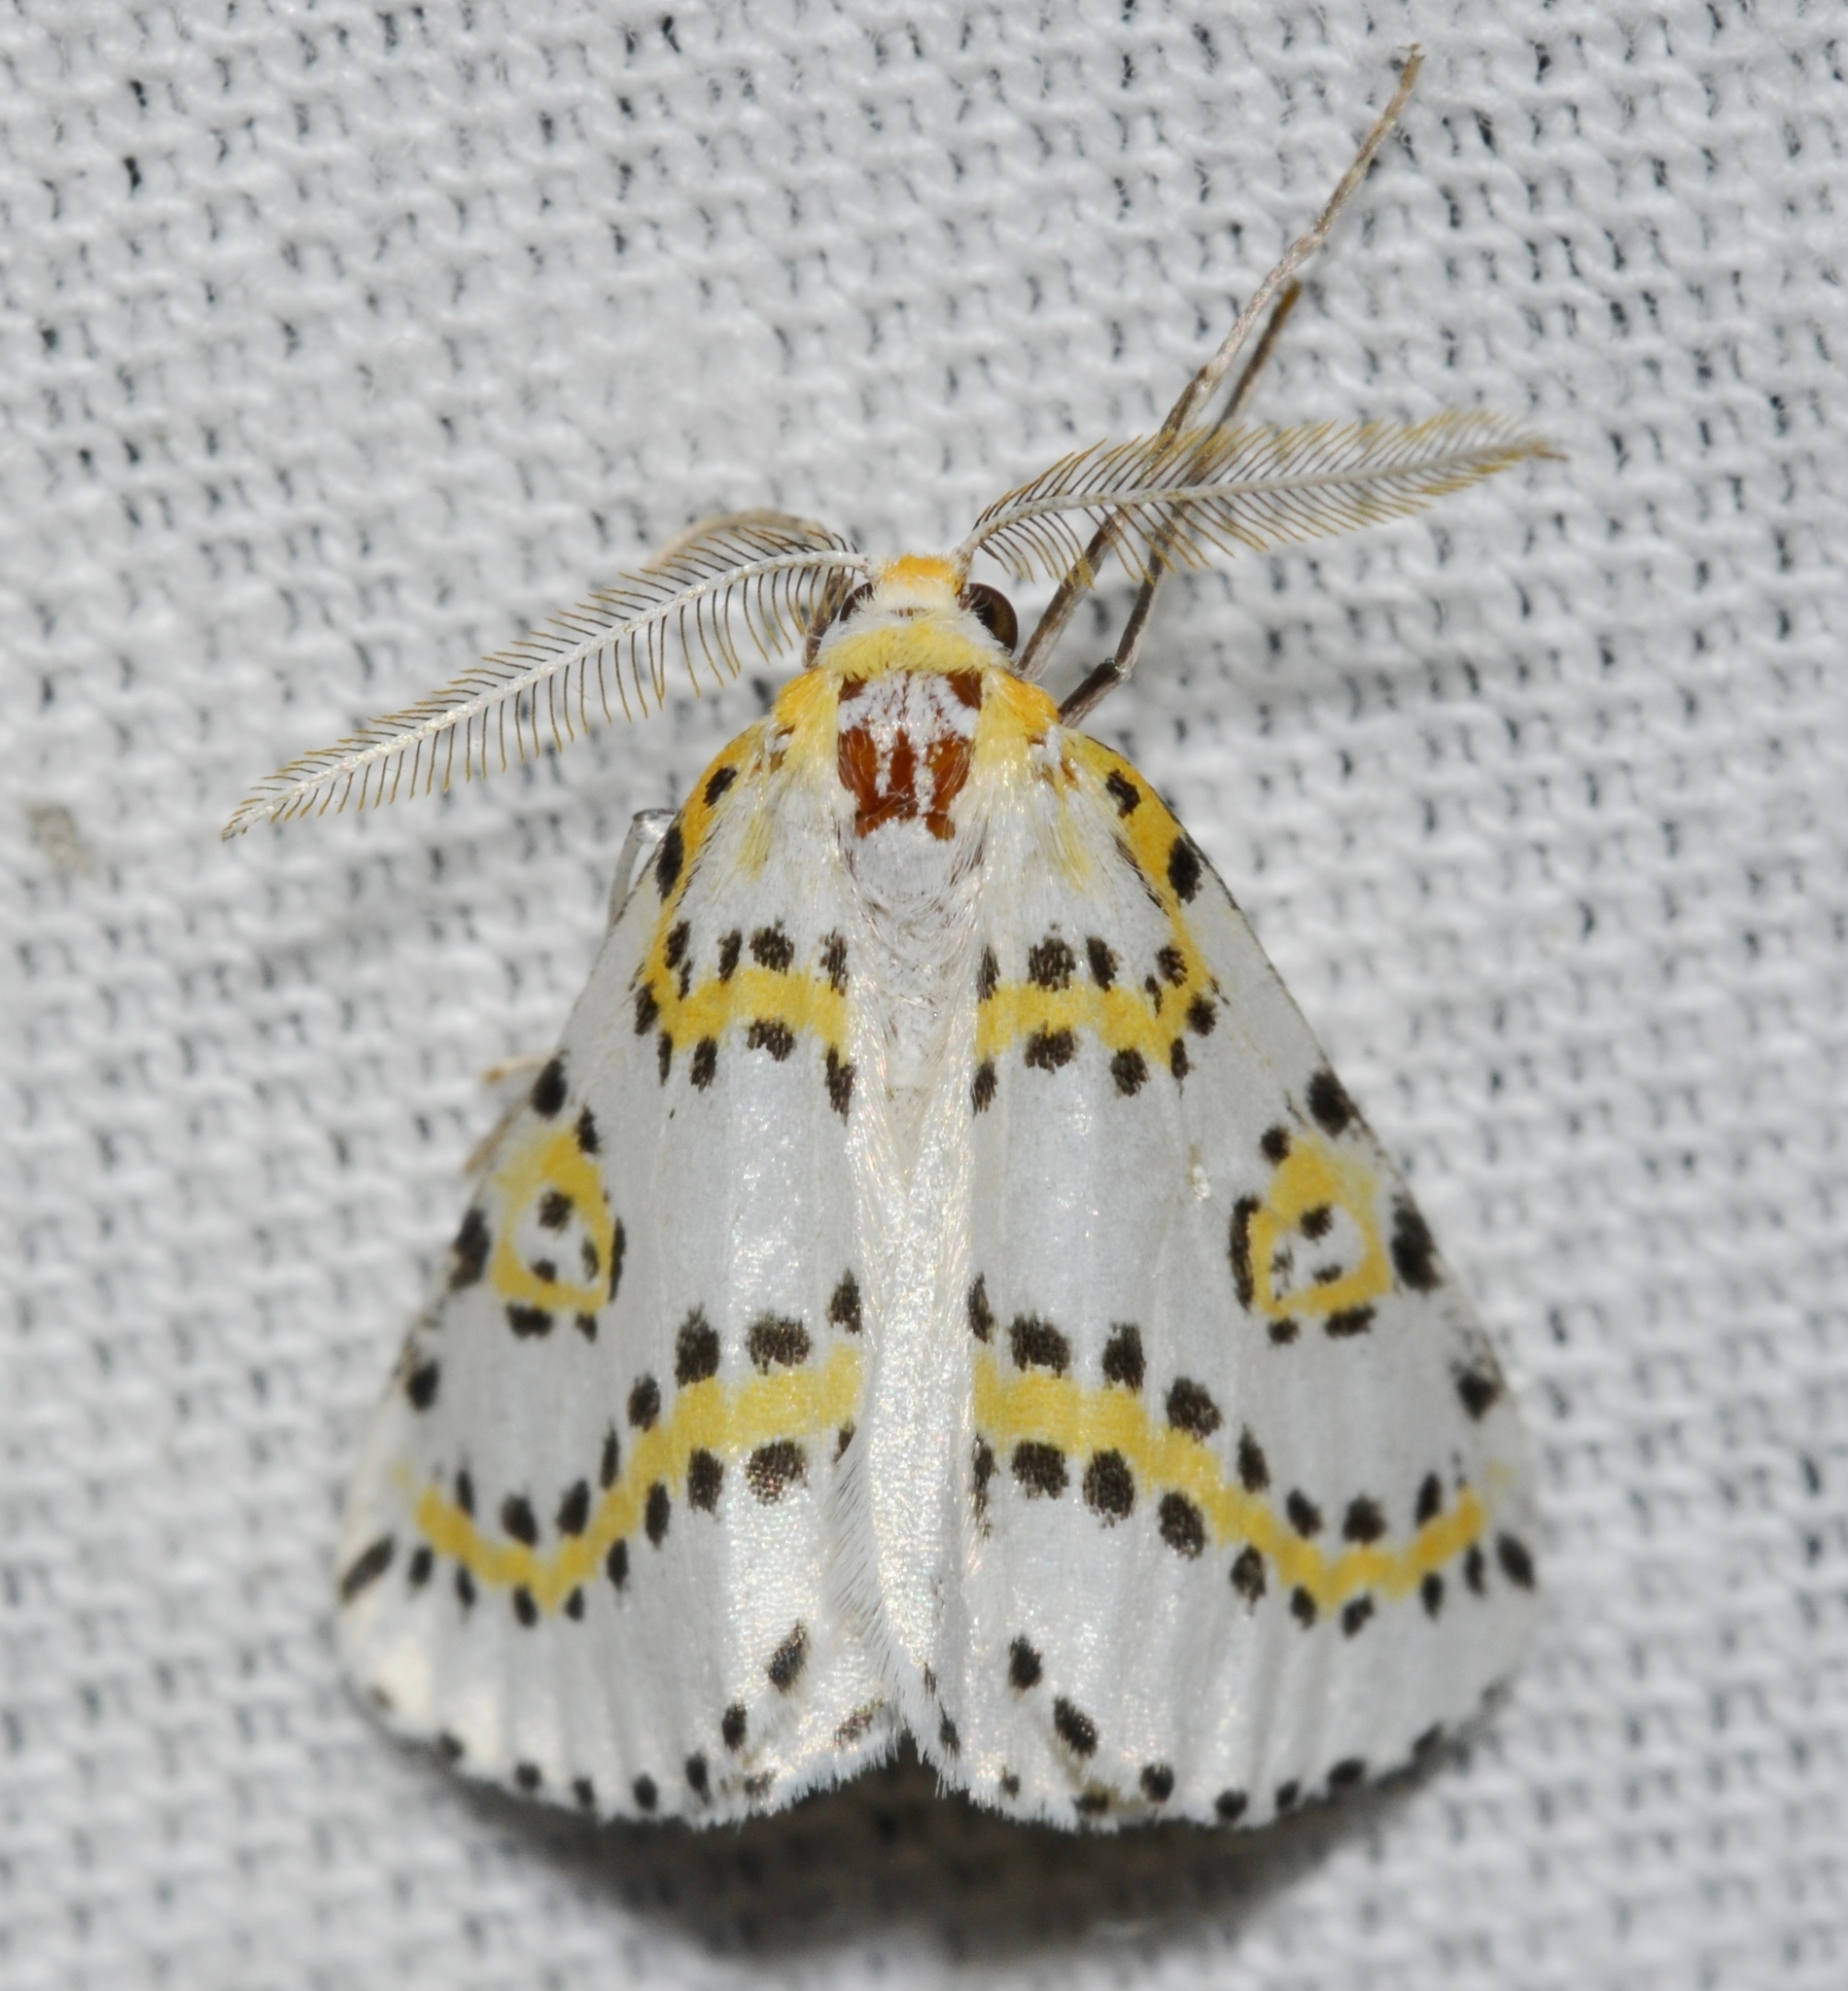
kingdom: Animalia
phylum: Arthropoda
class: Insecta
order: Lepidoptera
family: Geometridae
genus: Philtraea
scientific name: Philtraea monillata
